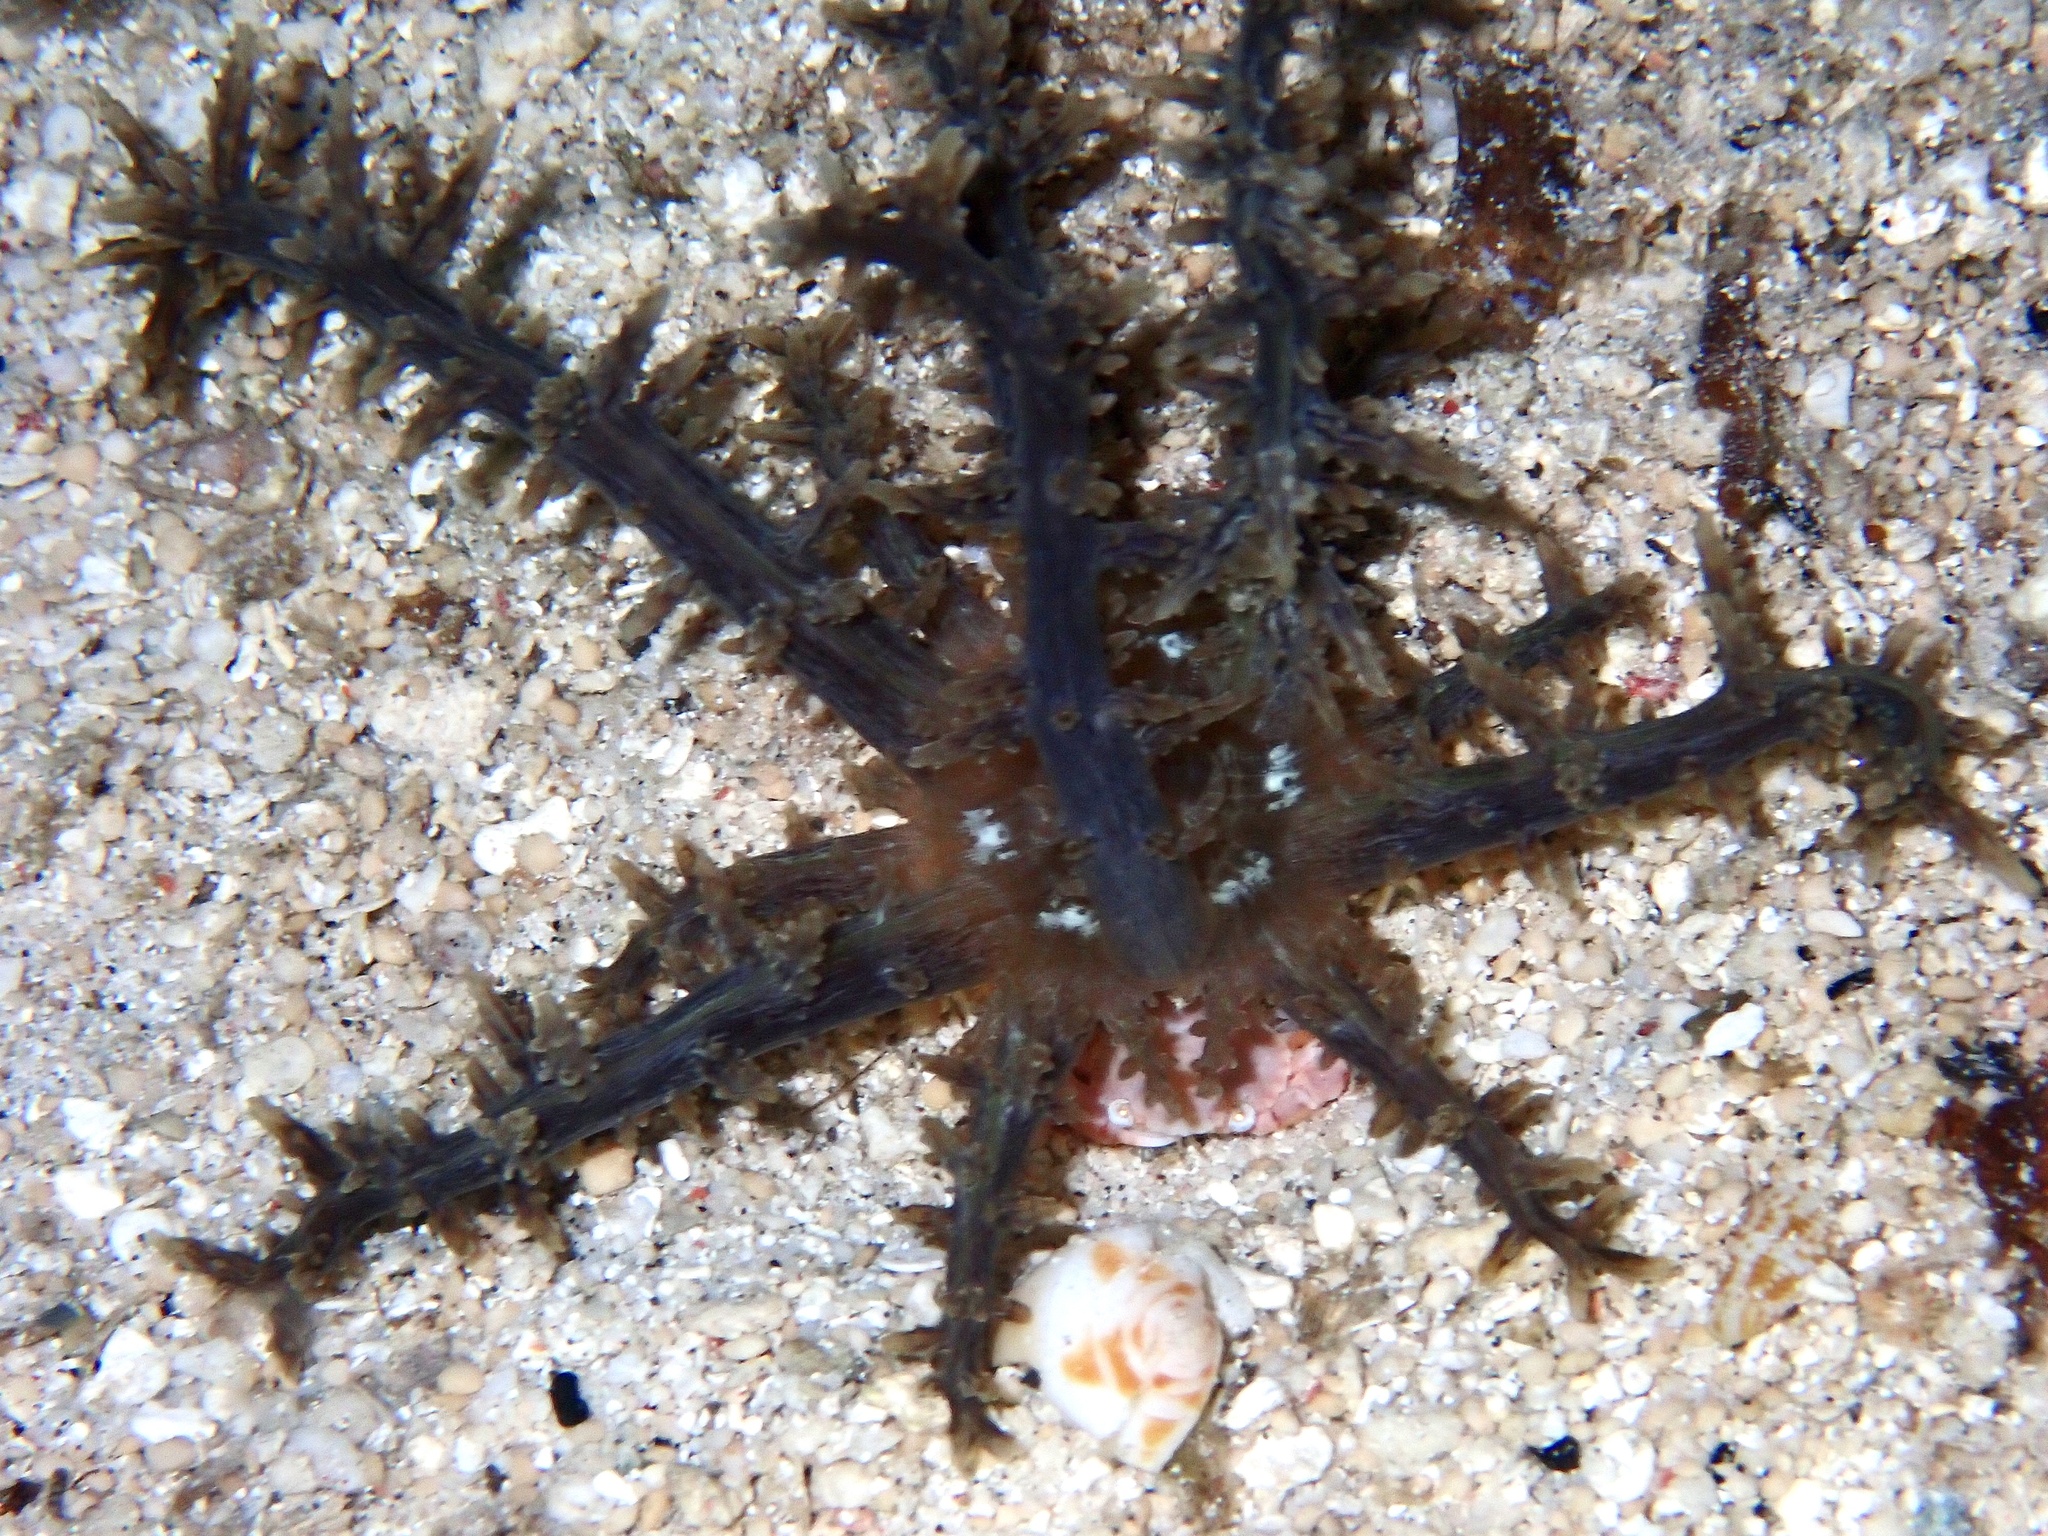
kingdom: Animalia
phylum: Cnidaria
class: Anthozoa
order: Actiniaria
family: Actinodendridae
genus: Actinodendron
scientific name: Actinodendron arboreum
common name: Tree anemone
